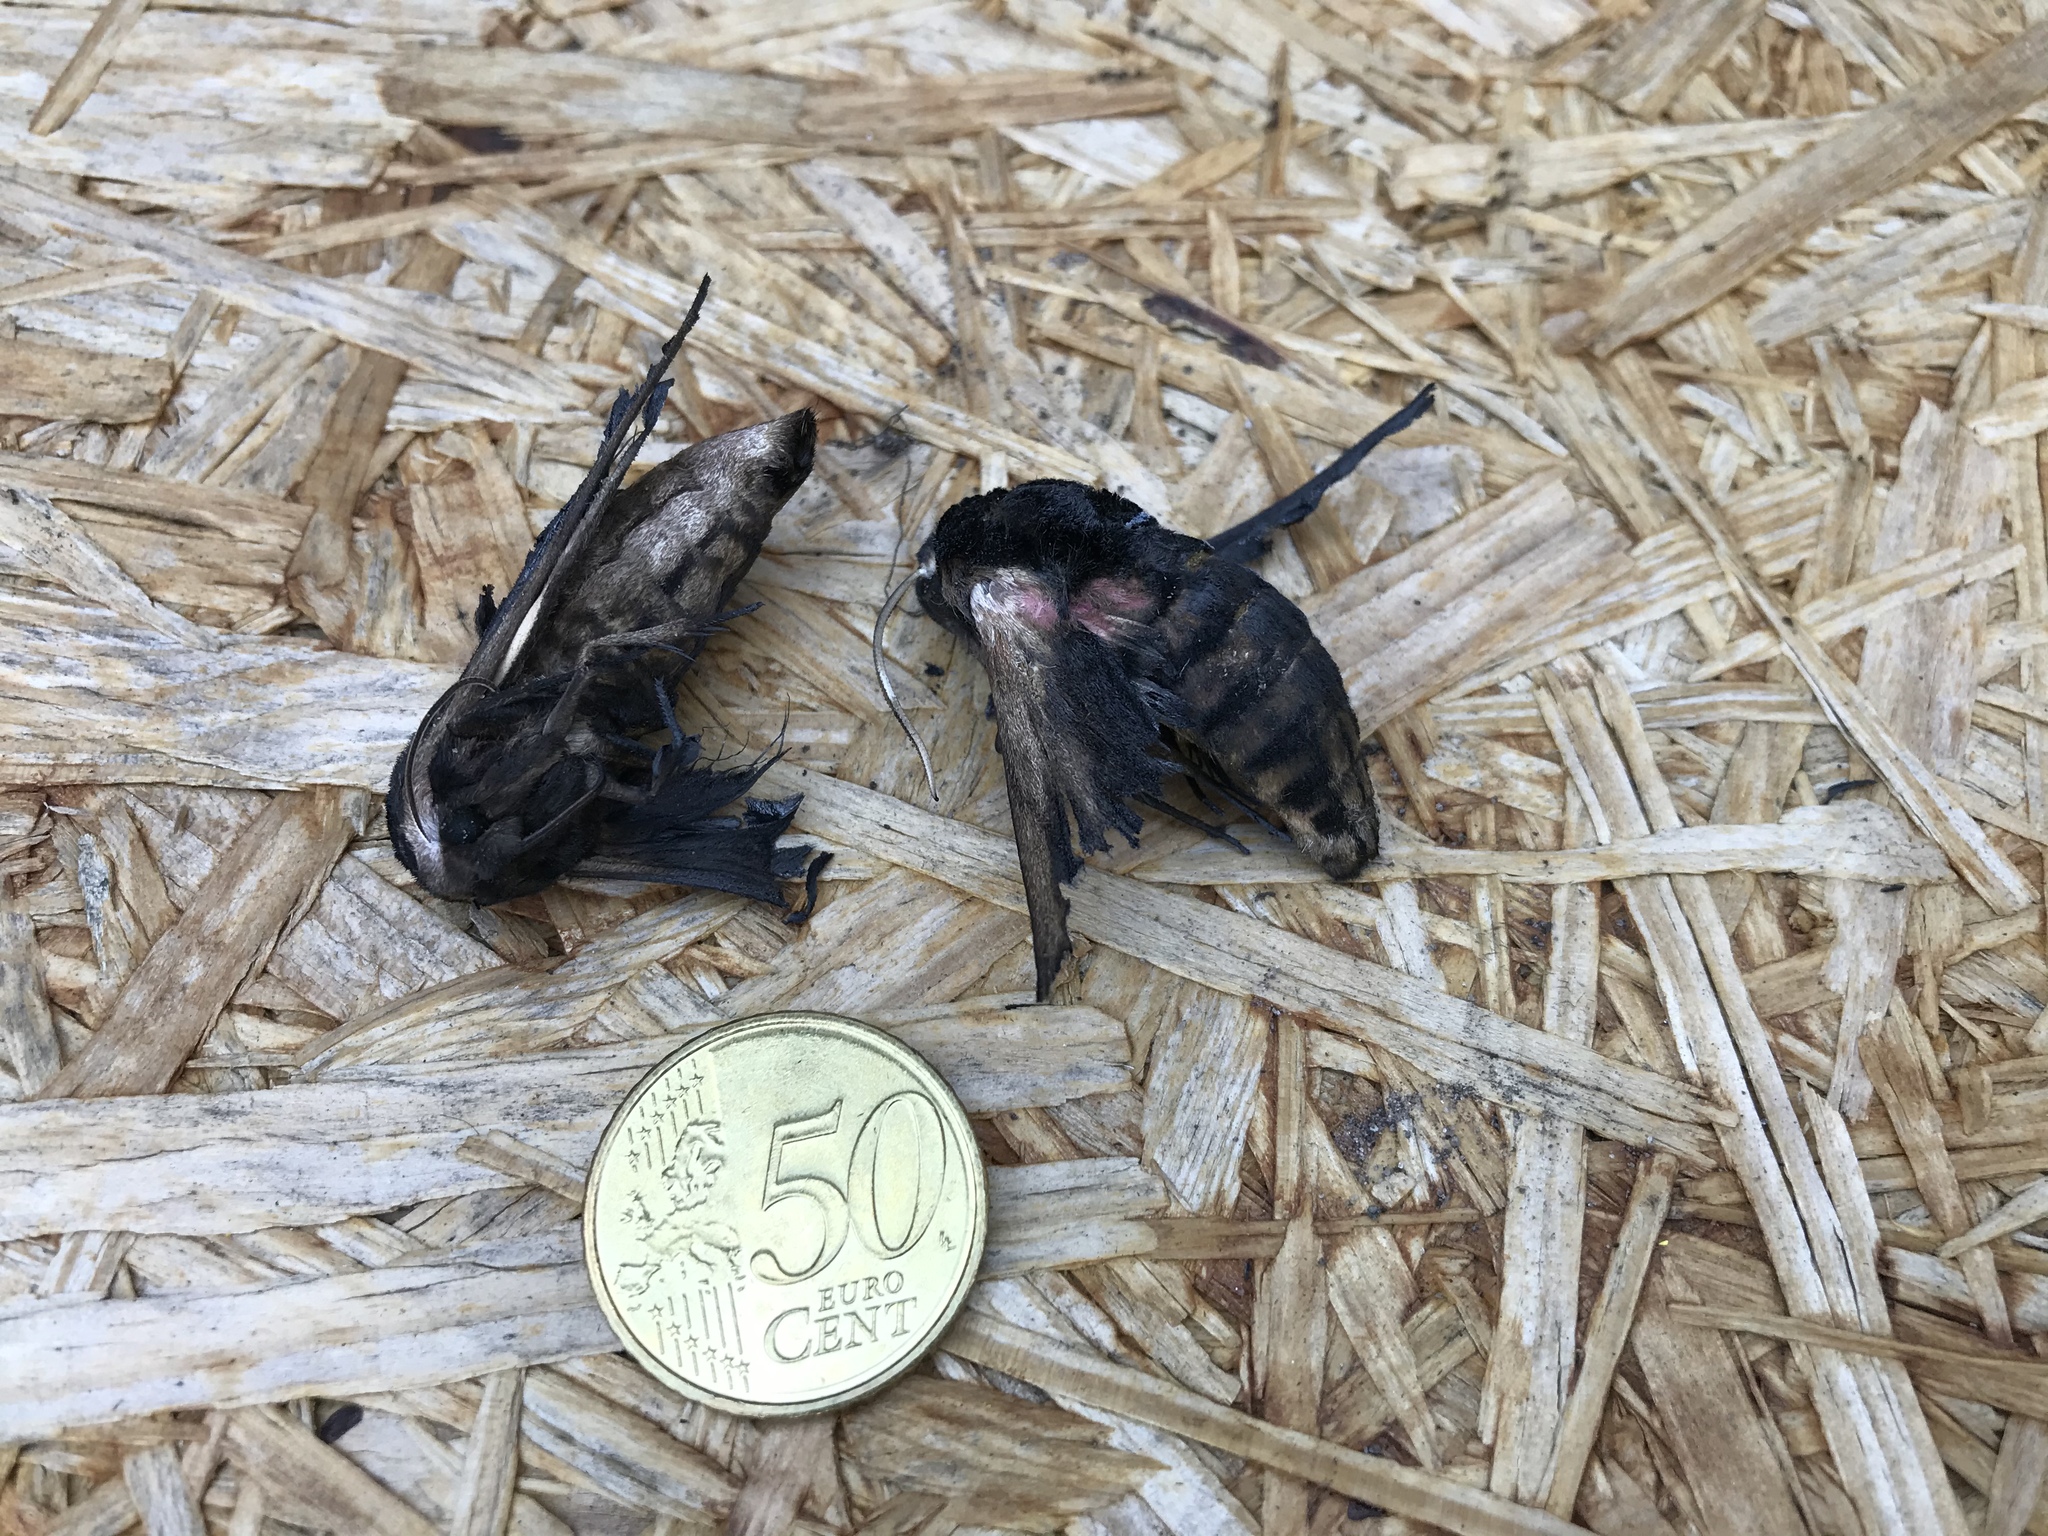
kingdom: Animalia
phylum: Arthropoda
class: Insecta
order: Lepidoptera
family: Sphingidae
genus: Sphinx
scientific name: Sphinx ligustri
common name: Privet hawk-moth
